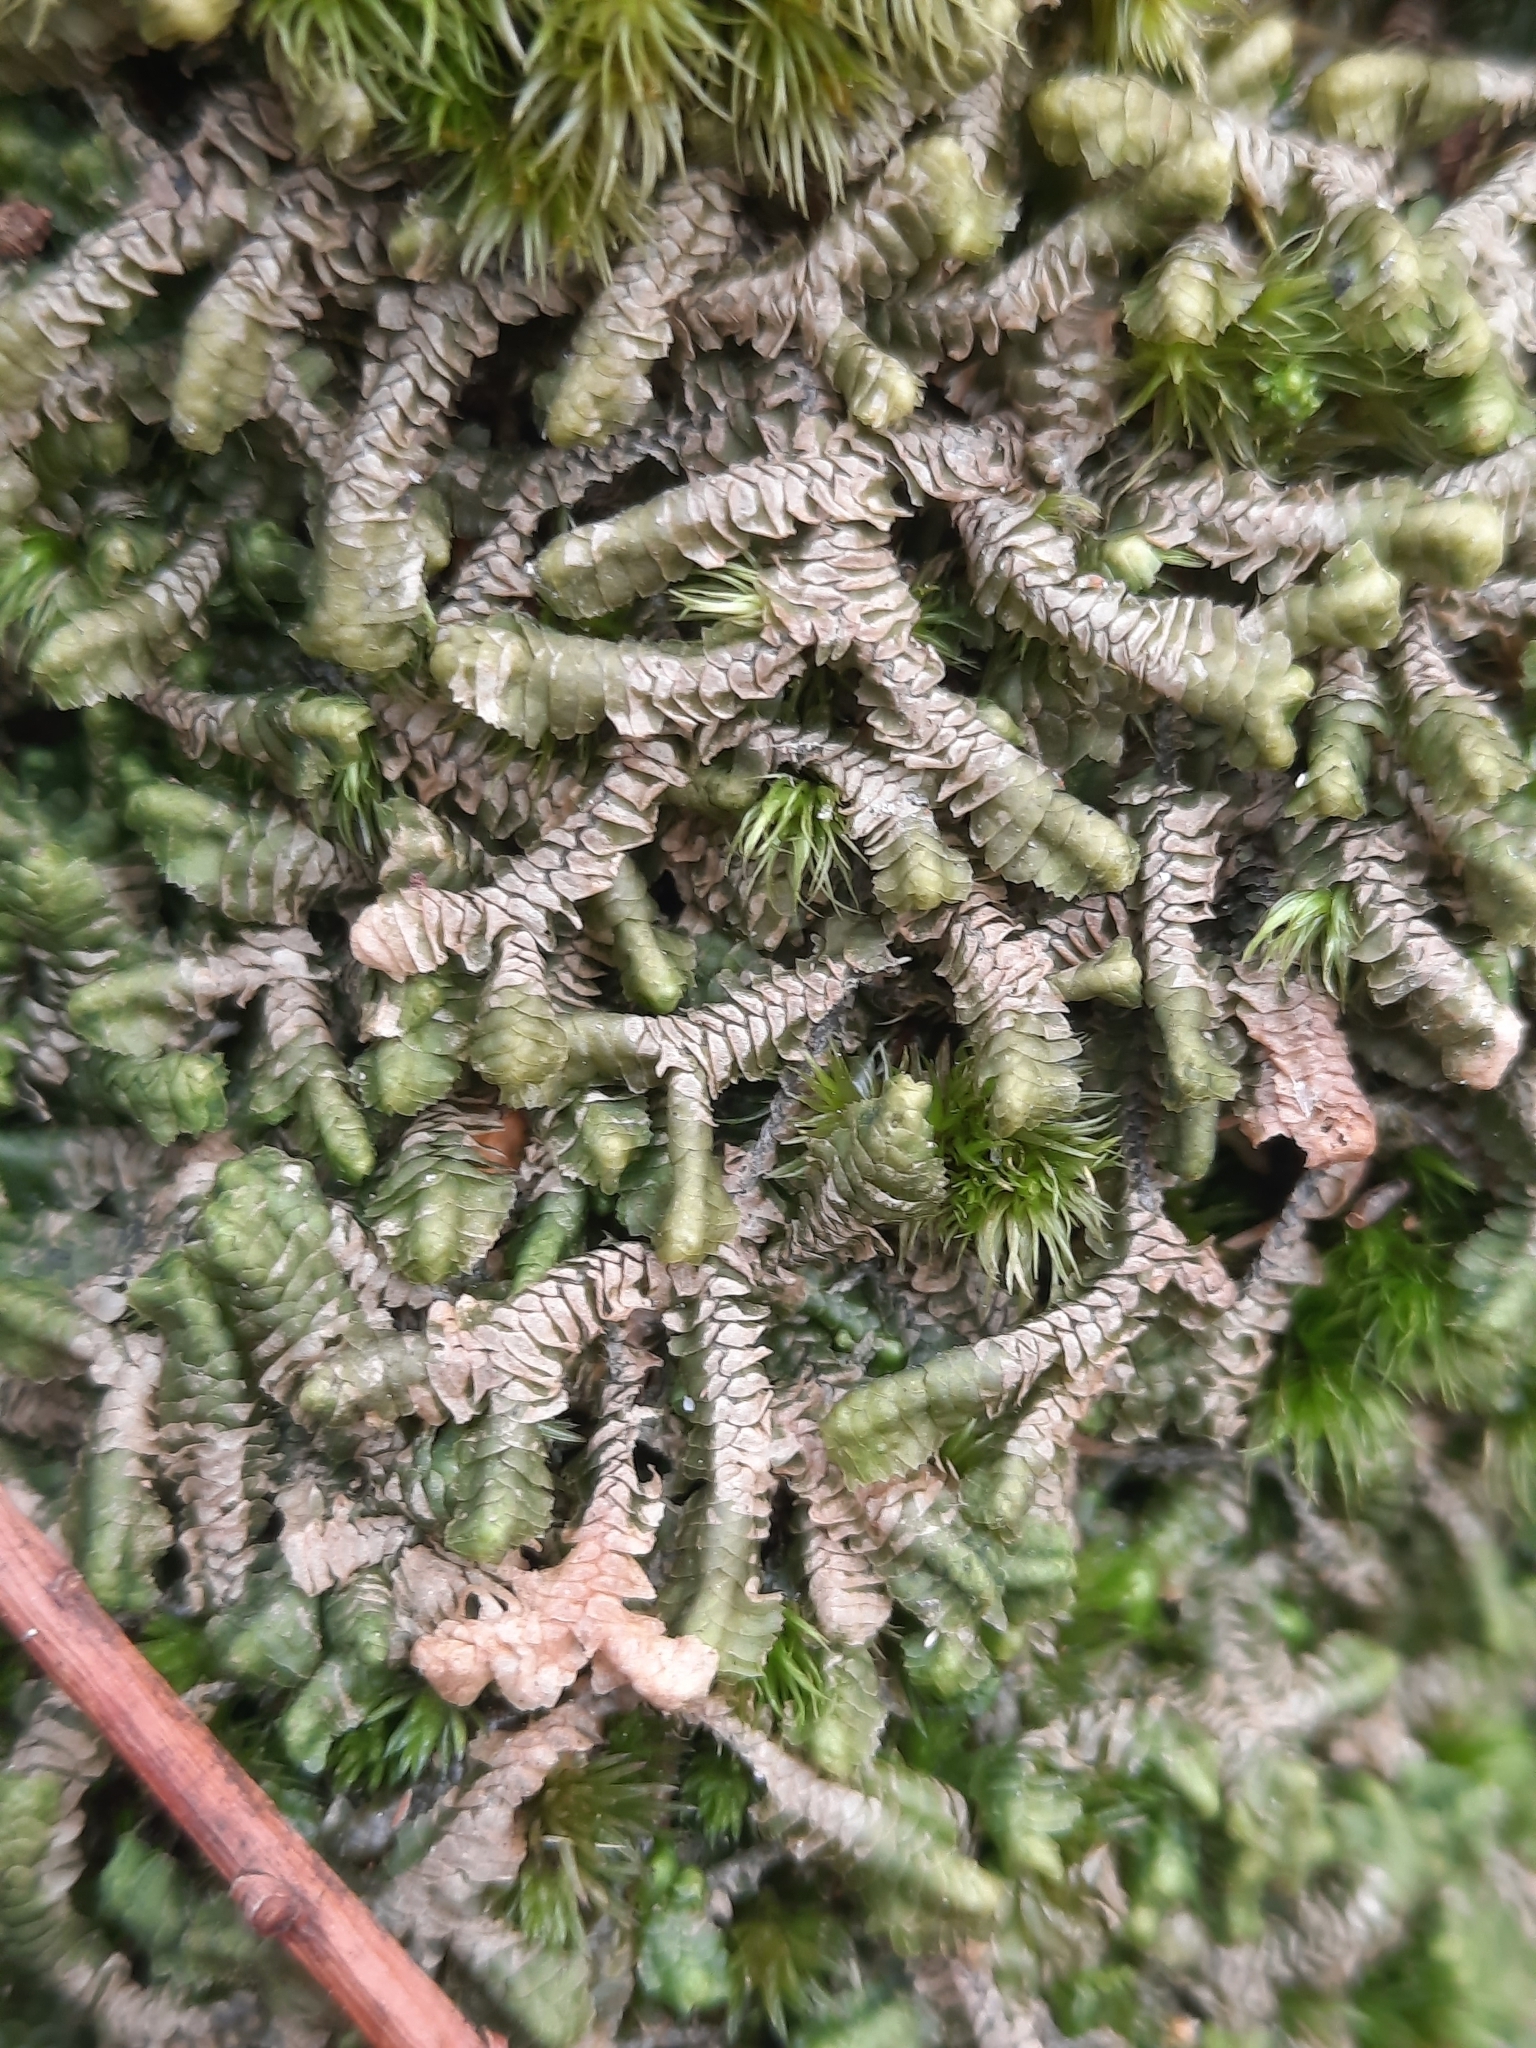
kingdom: Plantae
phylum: Marchantiophyta
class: Jungermanniopsida
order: Jungermanniales
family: Lepidoziaceae
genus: Bazzania
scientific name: Bazzania trilobata
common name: Three-lobed whipwort
